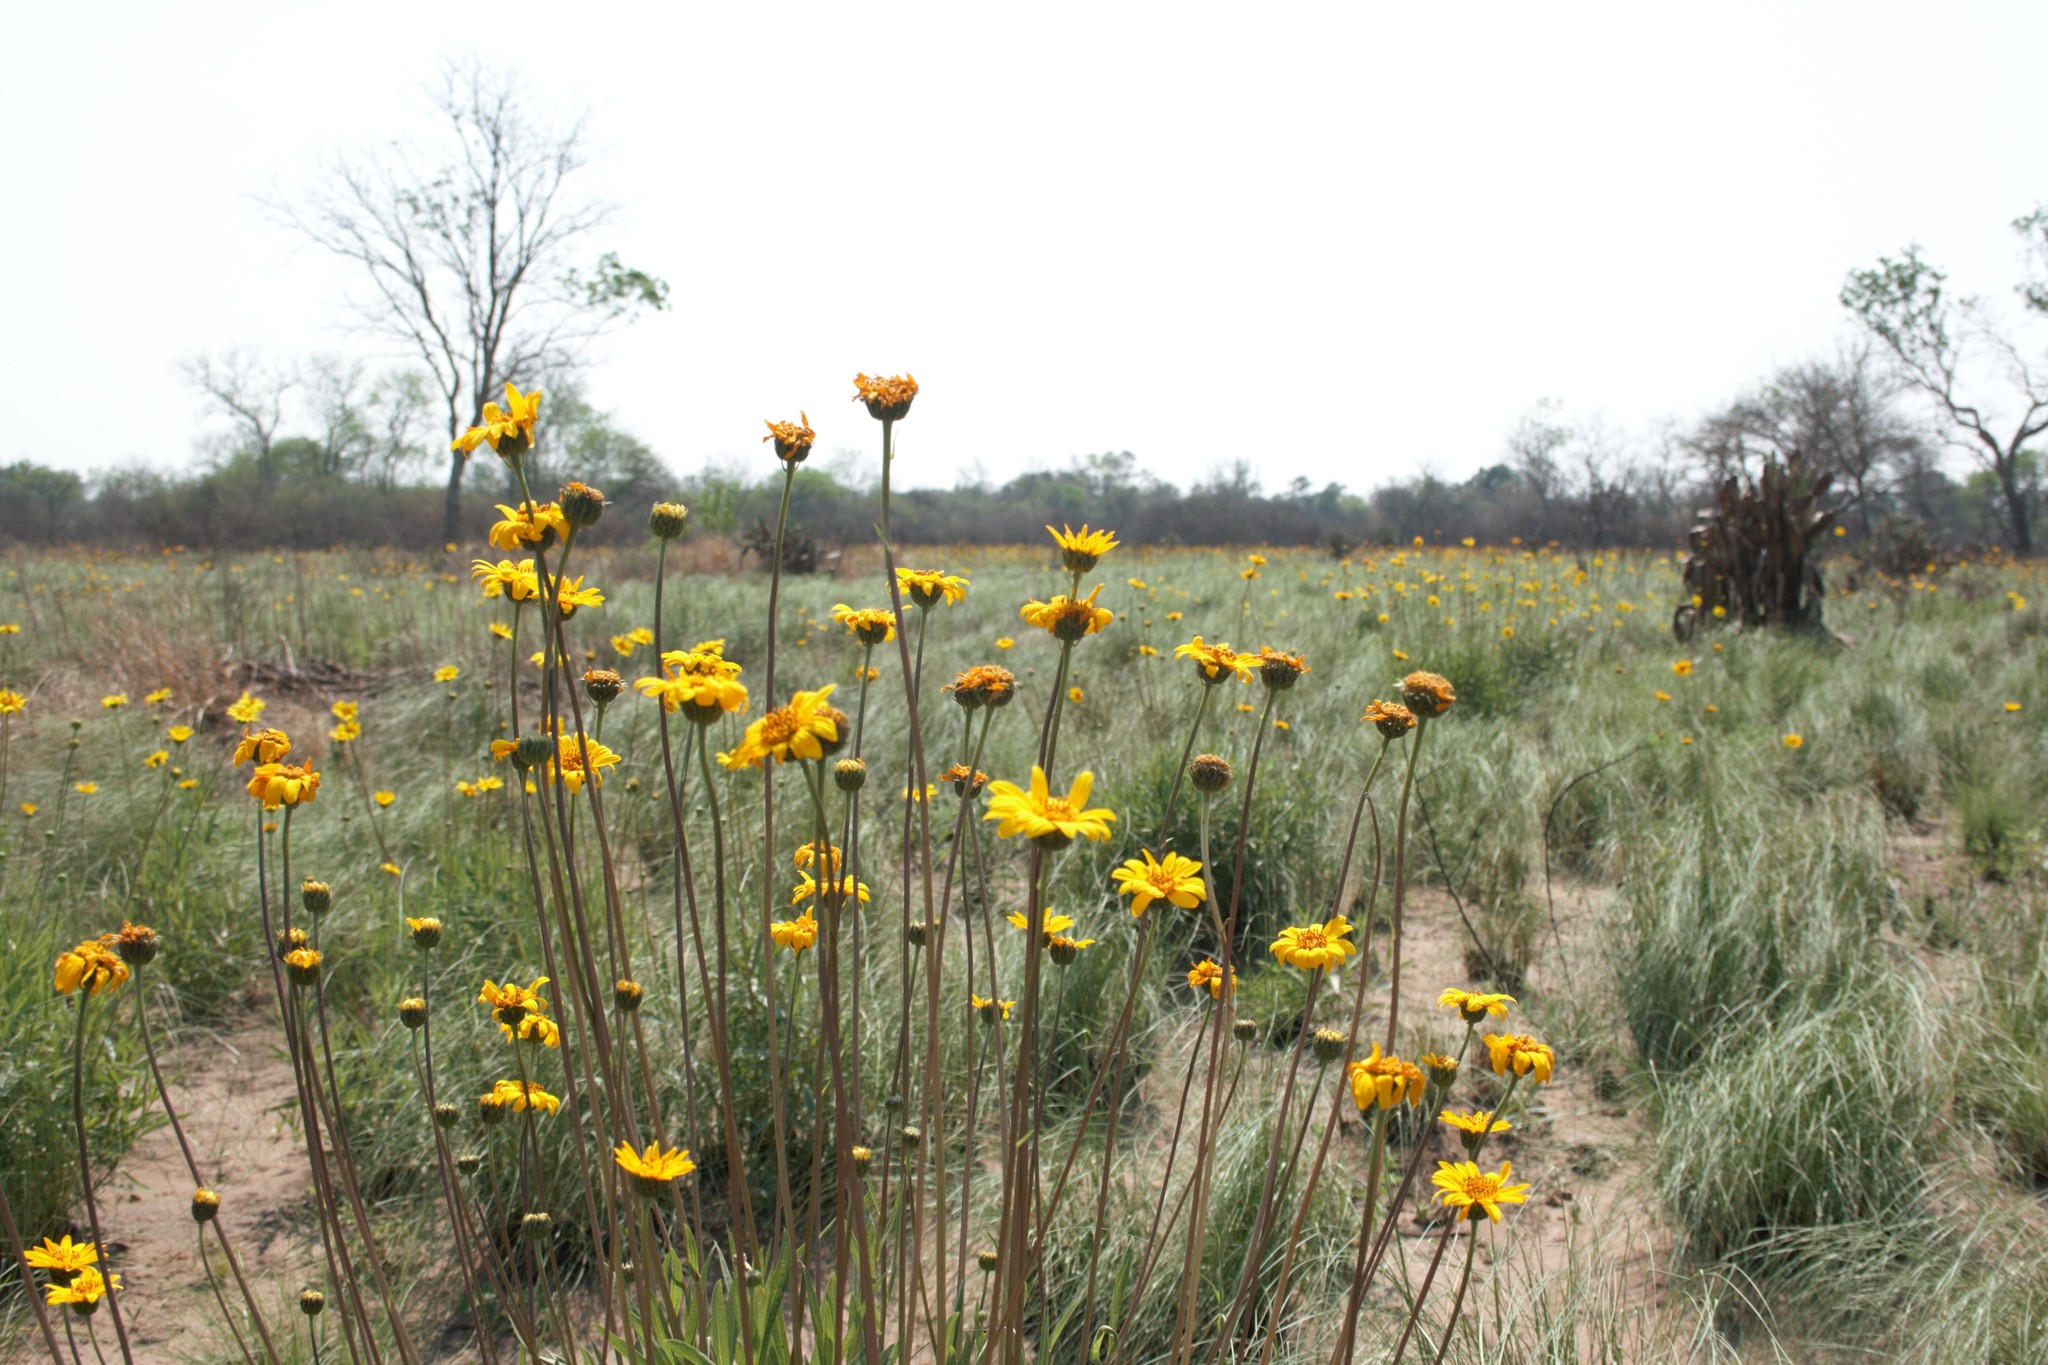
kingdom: Plantae
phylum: Tracheophyta
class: Magnoliopsida
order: Asterales
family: Asteraceae
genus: Dimerostemma
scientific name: Dimerostemma arnottii
